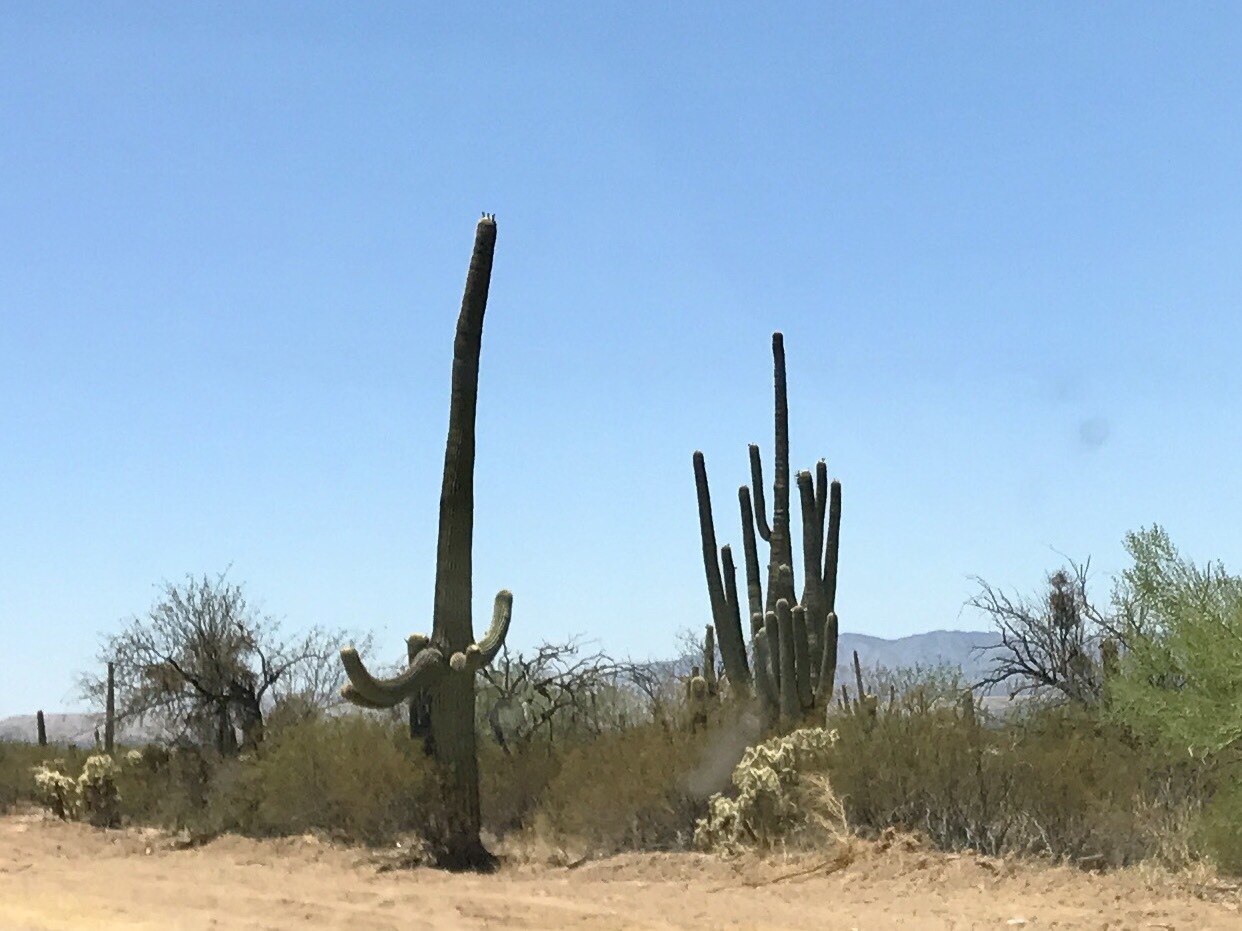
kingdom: Plantae
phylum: Tracheophyta
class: Magnoliopsida
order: Caryophyllales
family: Cactaceae
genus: Carnegiea
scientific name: Carnegiea gigantea
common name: Saguaro
